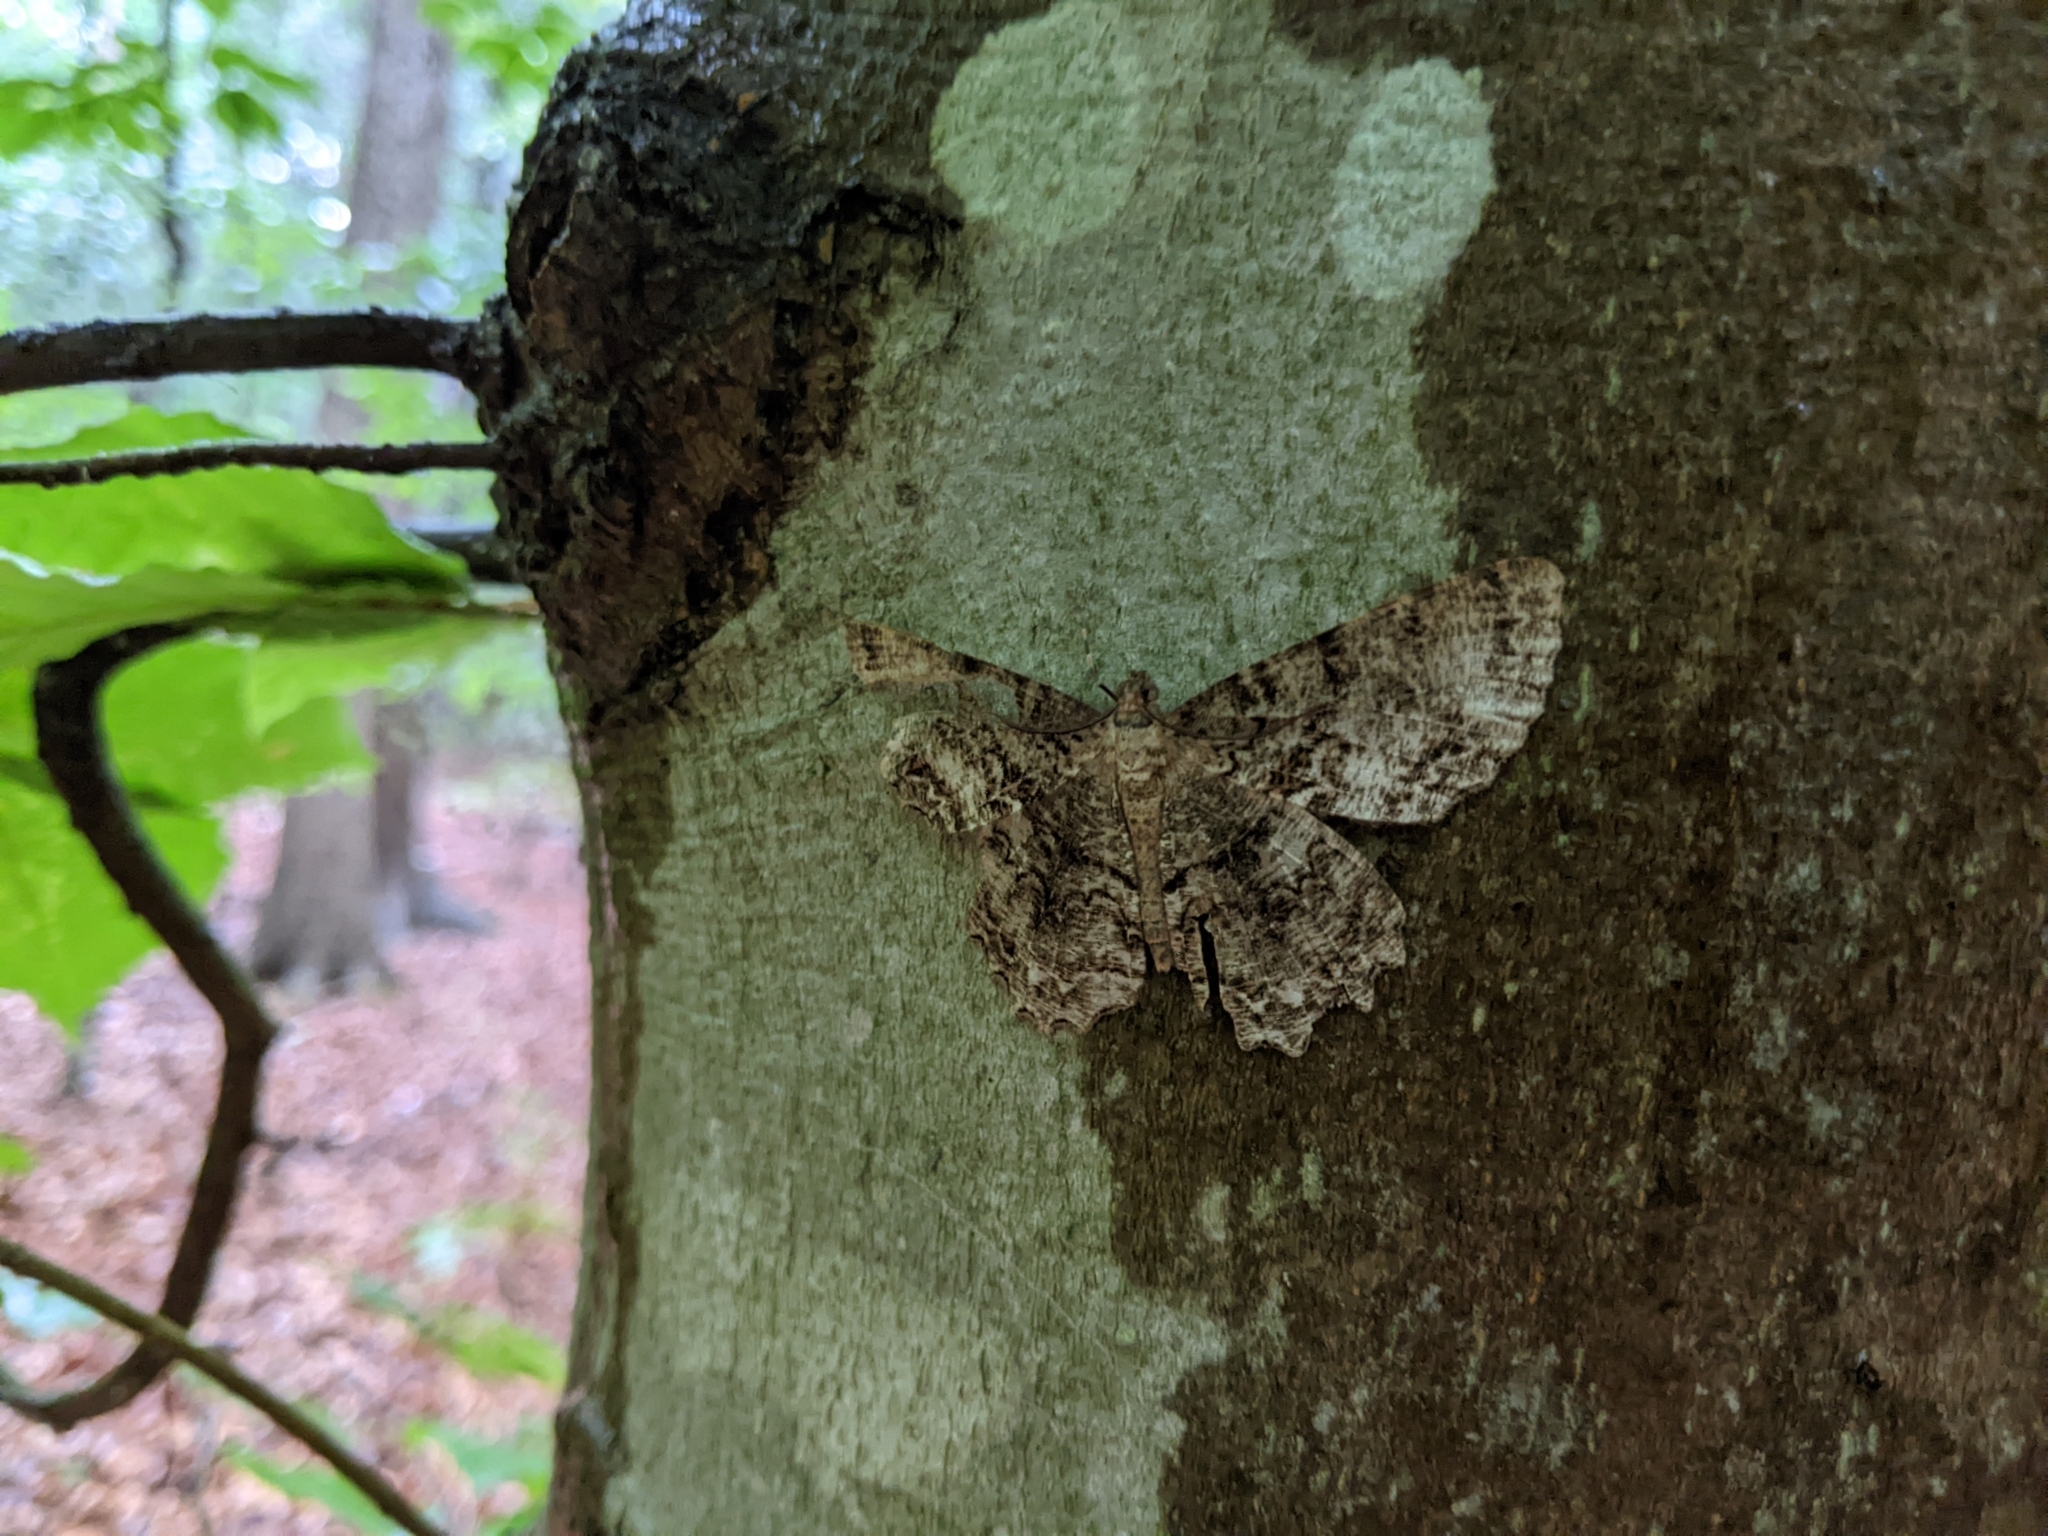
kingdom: Animalia
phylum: Arthropoda
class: Insecta
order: Lepidoptera
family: Geometridae
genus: Epimecis
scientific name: Epimecis hortaria
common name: Tulip-tree beauty
